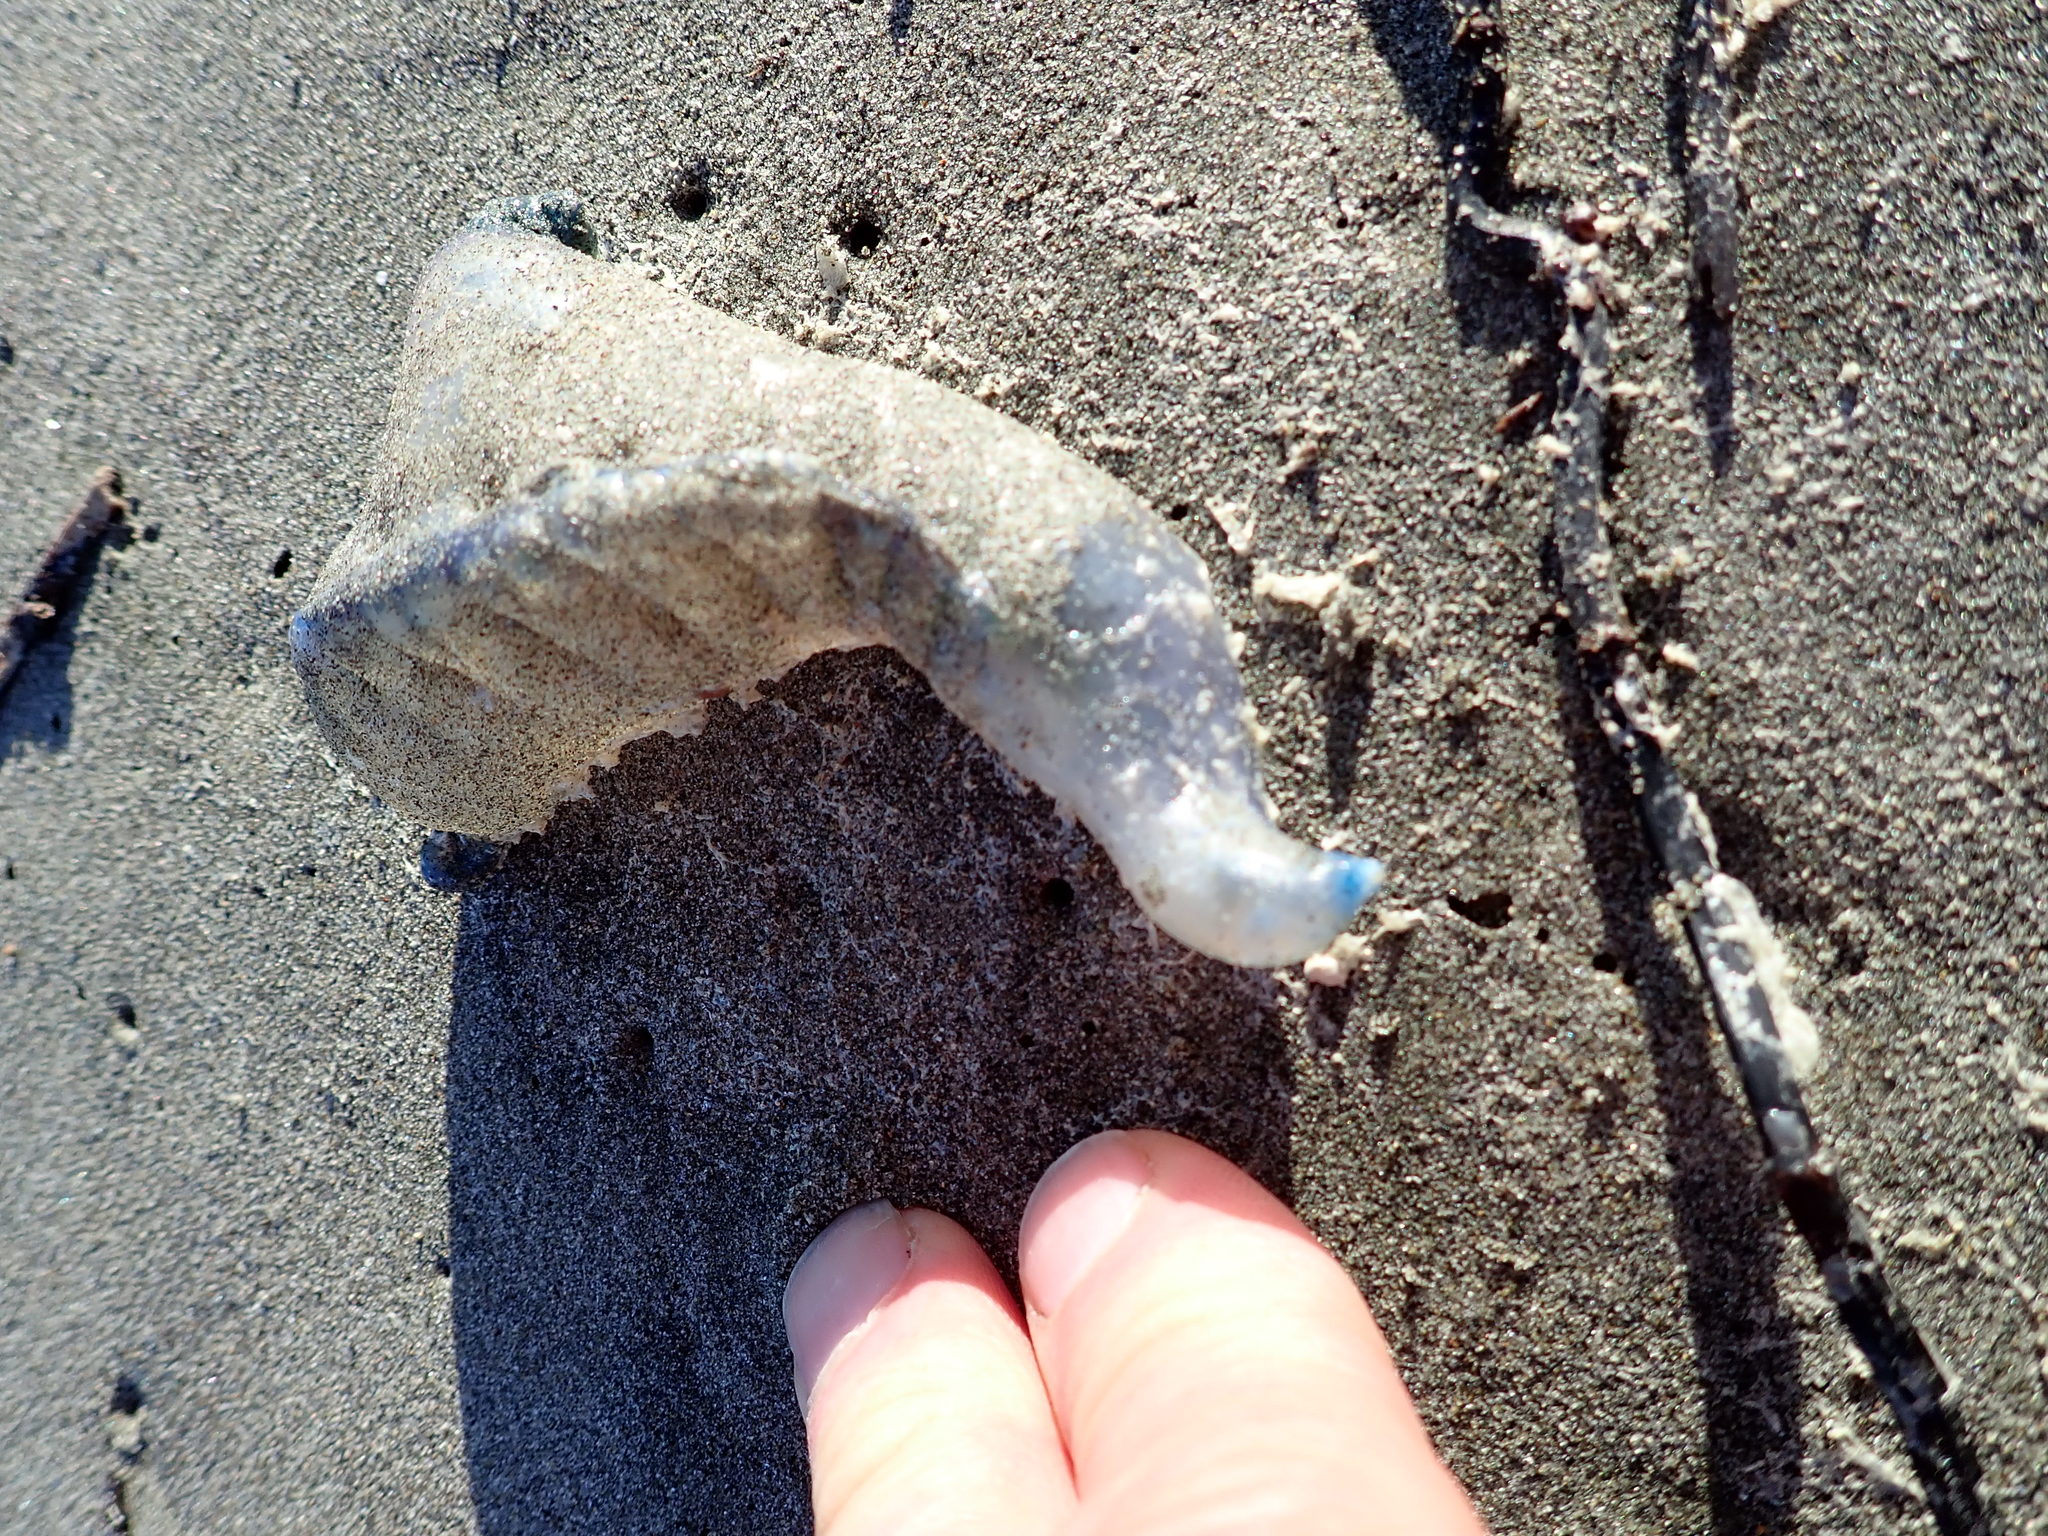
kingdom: Animalia
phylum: Cnidaria
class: Hydrozoa
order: Siphonophorae
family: Physaliidae
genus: Physalia
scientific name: Physalia physalis
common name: Portuguese man-of-war
